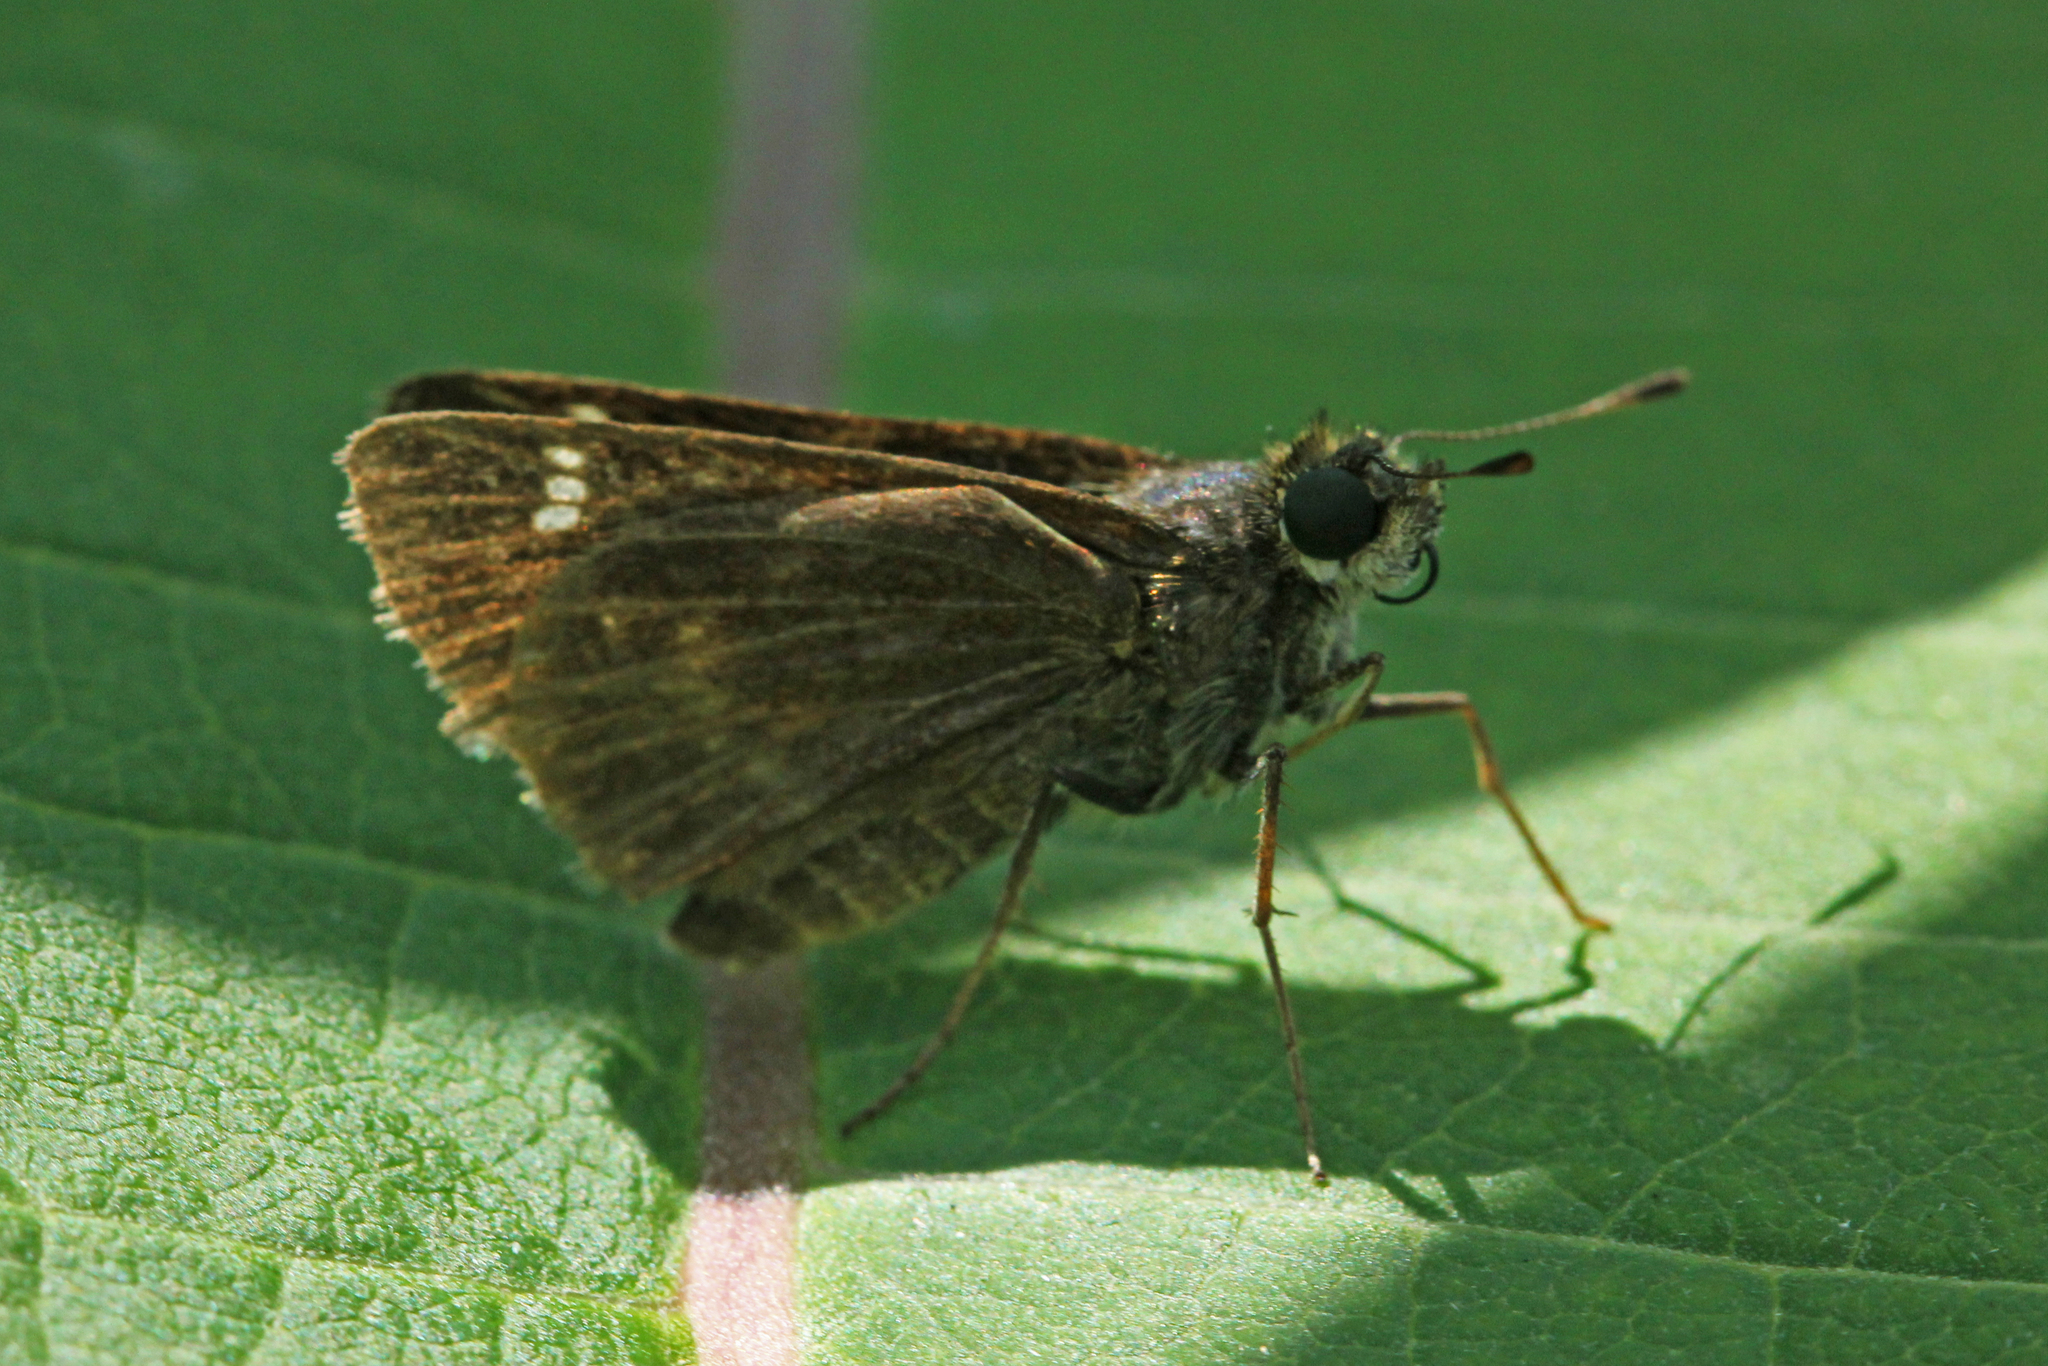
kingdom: Animalia
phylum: Arthropoda
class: Insecta
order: Lepidoptera
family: Hesperiidae
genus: Vernia
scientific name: Vernia verna
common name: Little glassywing
